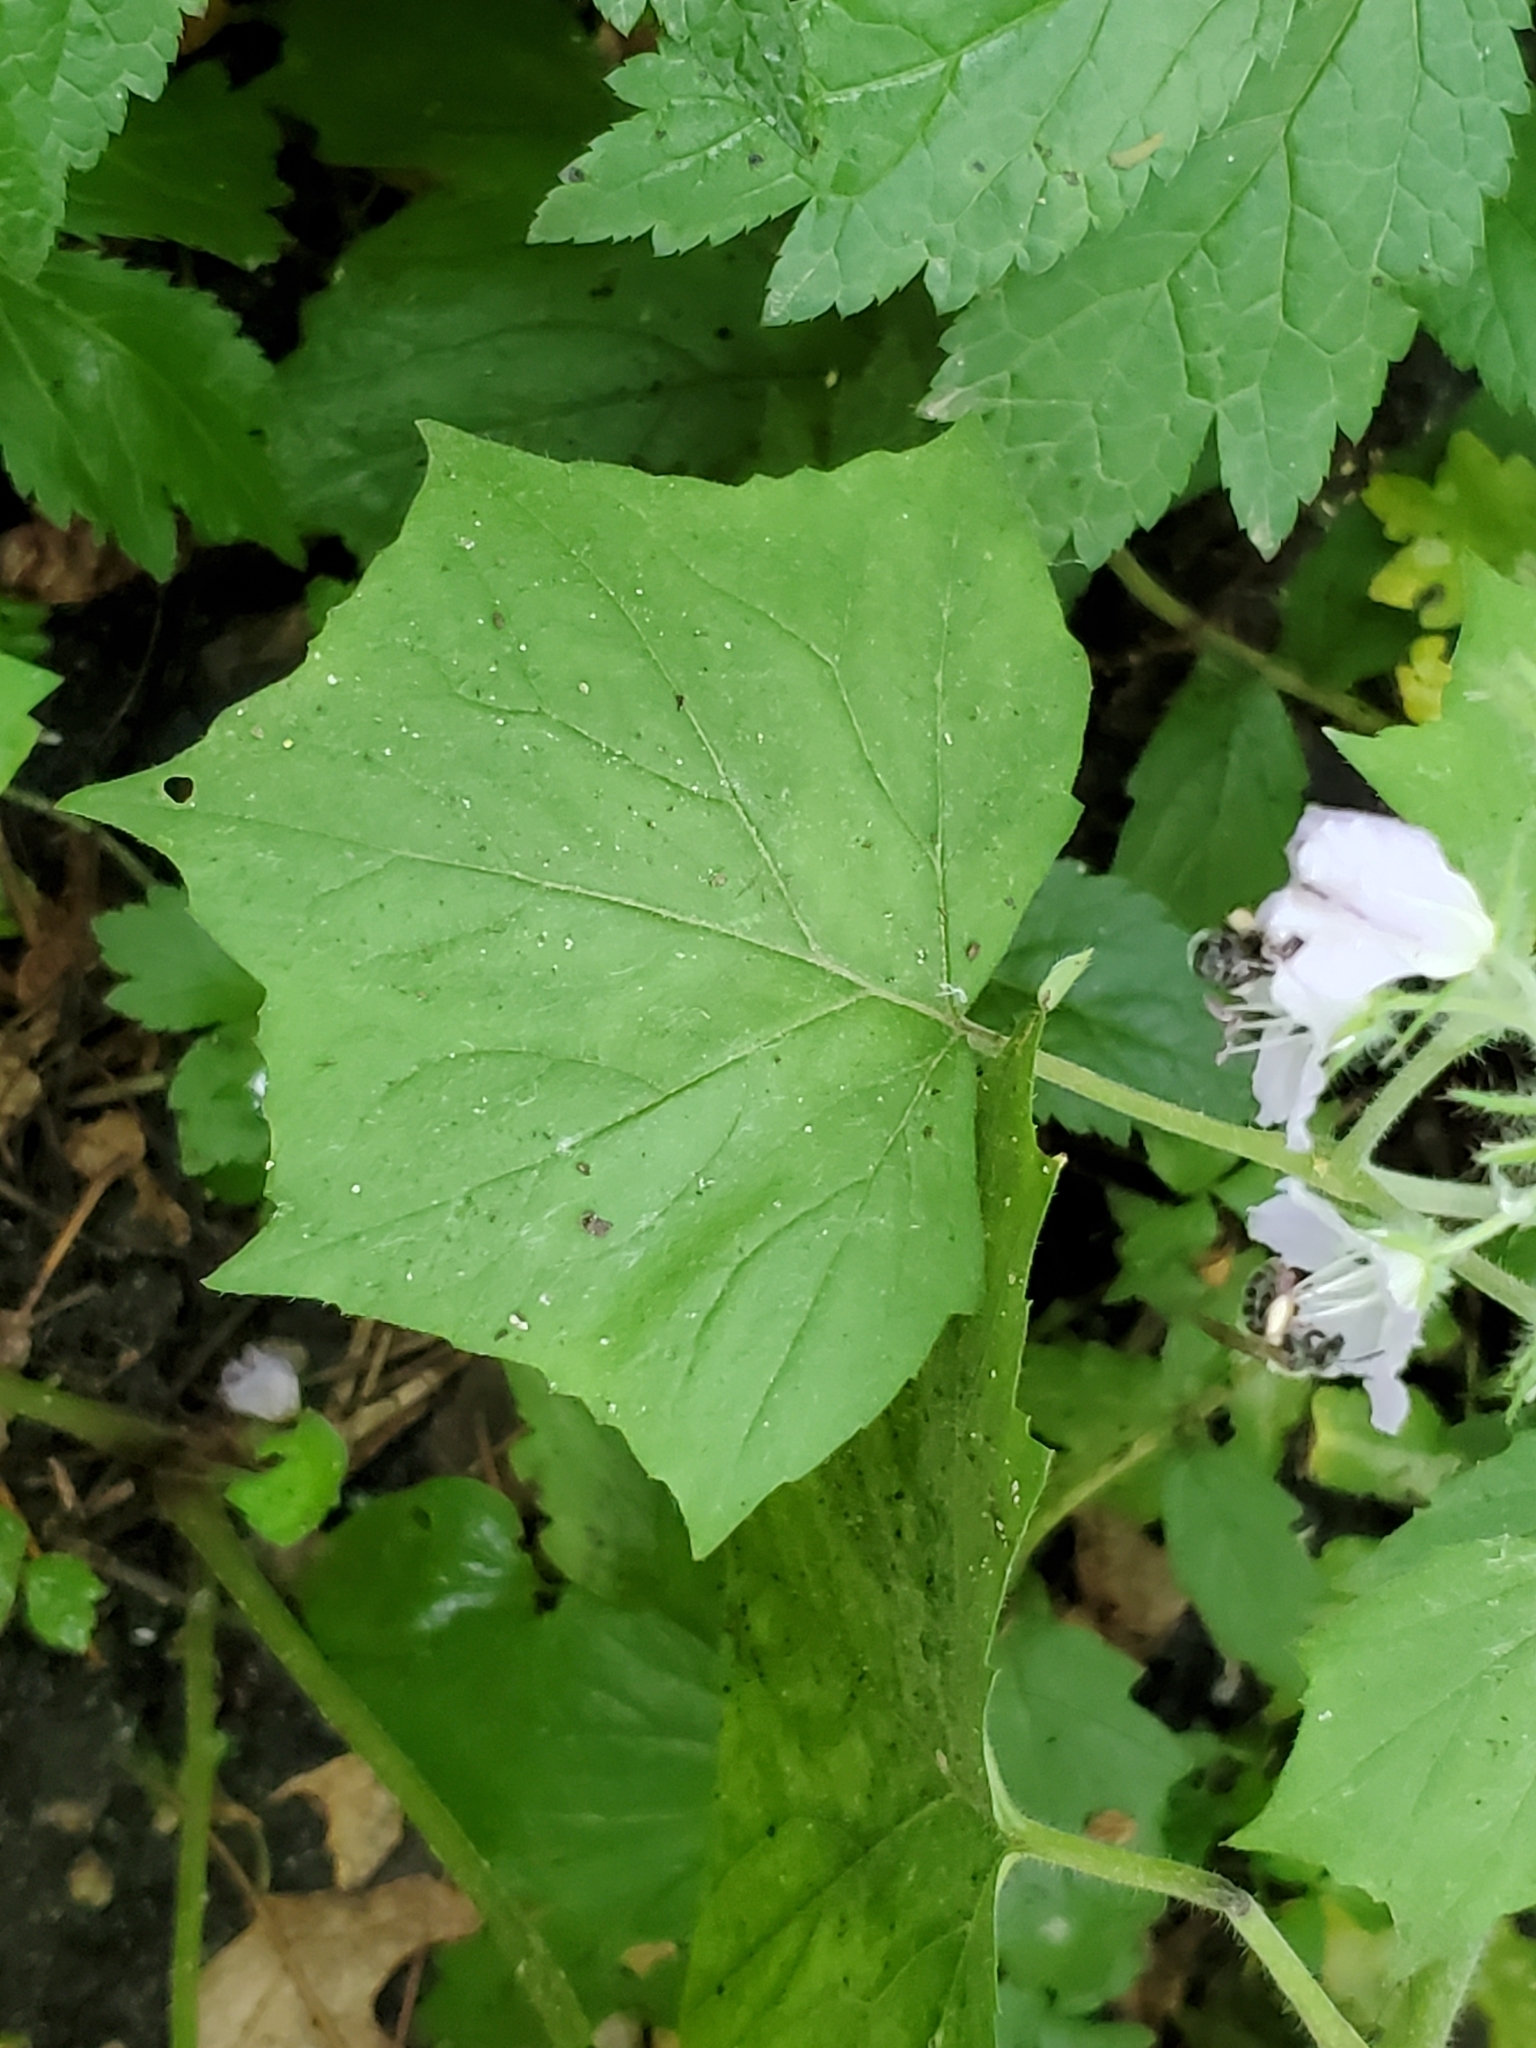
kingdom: Plantae
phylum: Tracheophyta
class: Magnoliopsida
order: Boraginales
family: Hydrophyllaceae
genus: Hydrophyllum
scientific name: Hydrophyllum appendiculatum
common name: Appendaged waterleaf
